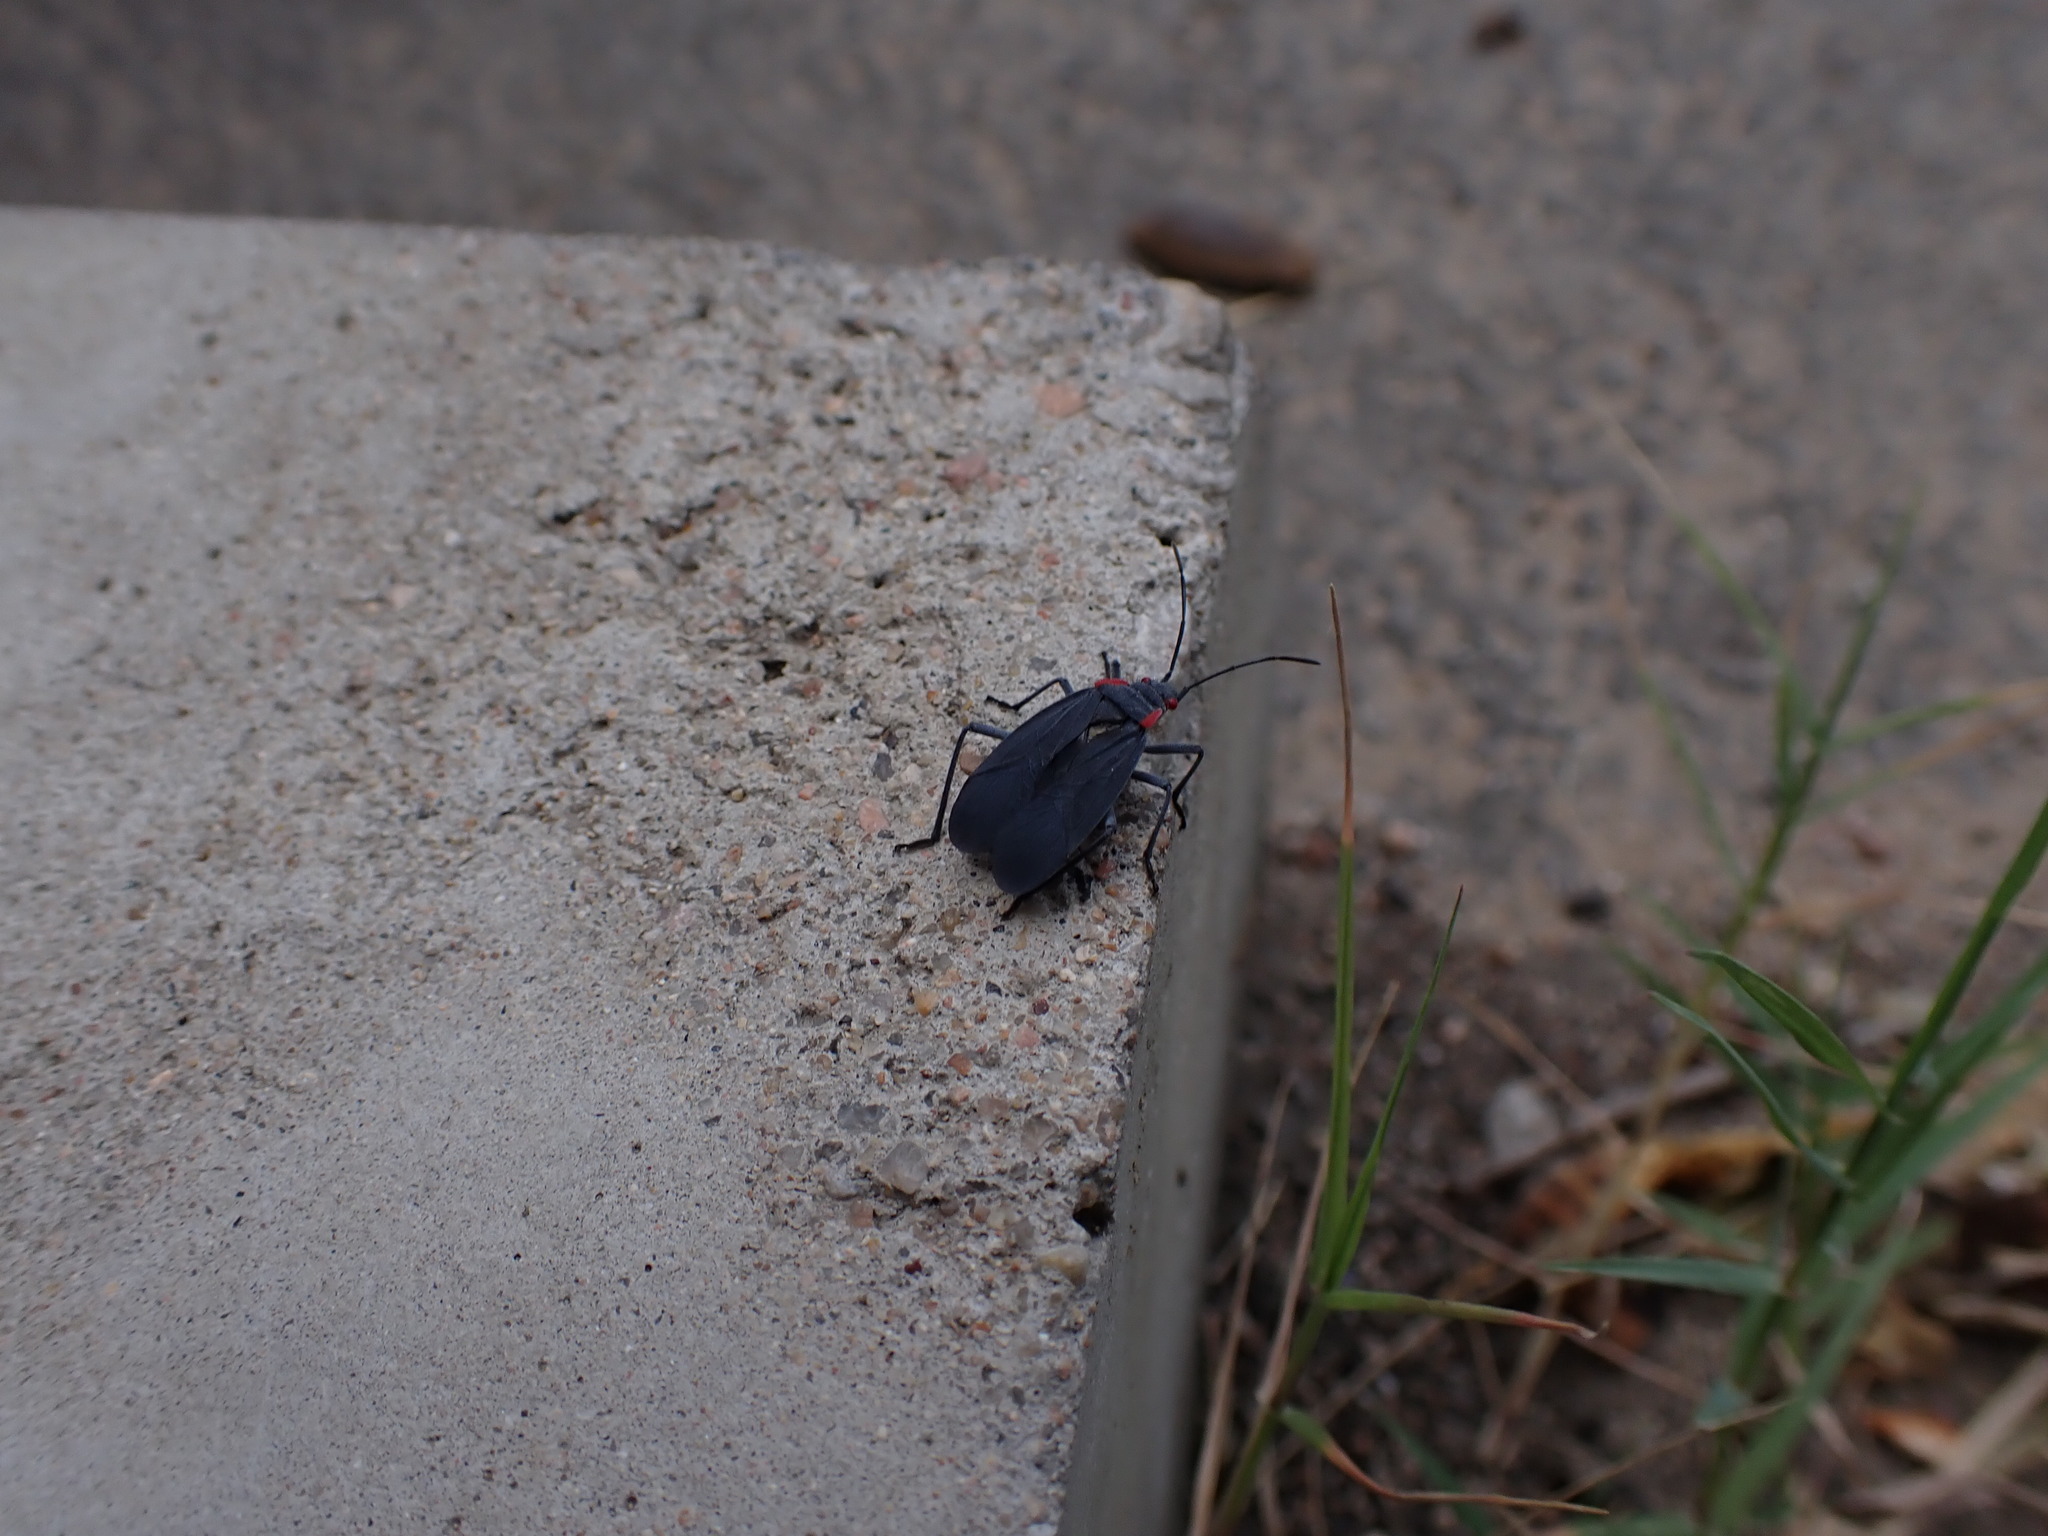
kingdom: Animalia
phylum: Arthropoda
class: Insecta
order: Hemiptera
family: Rhopalidae
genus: Jadera
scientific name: Jadera haematoloma
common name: Red-shouldered bug
